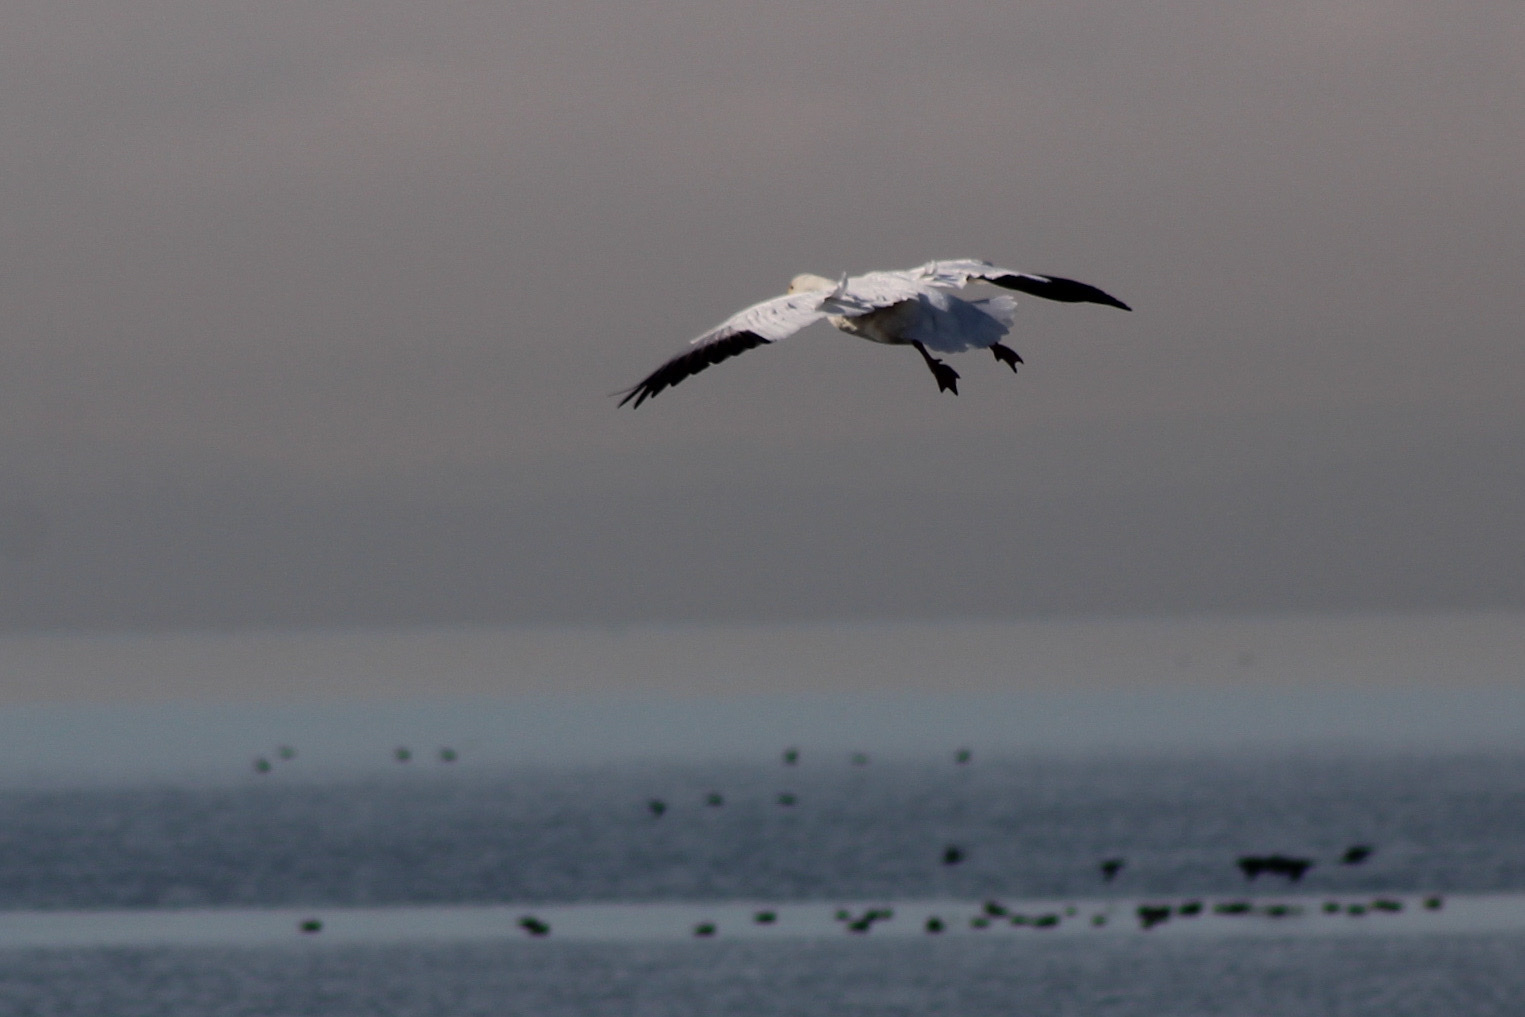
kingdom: Animalia
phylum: Chordata
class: Aves
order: Anseriformes
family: Anatidae
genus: Anser
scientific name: Anser caerulescens
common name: Snow goose
